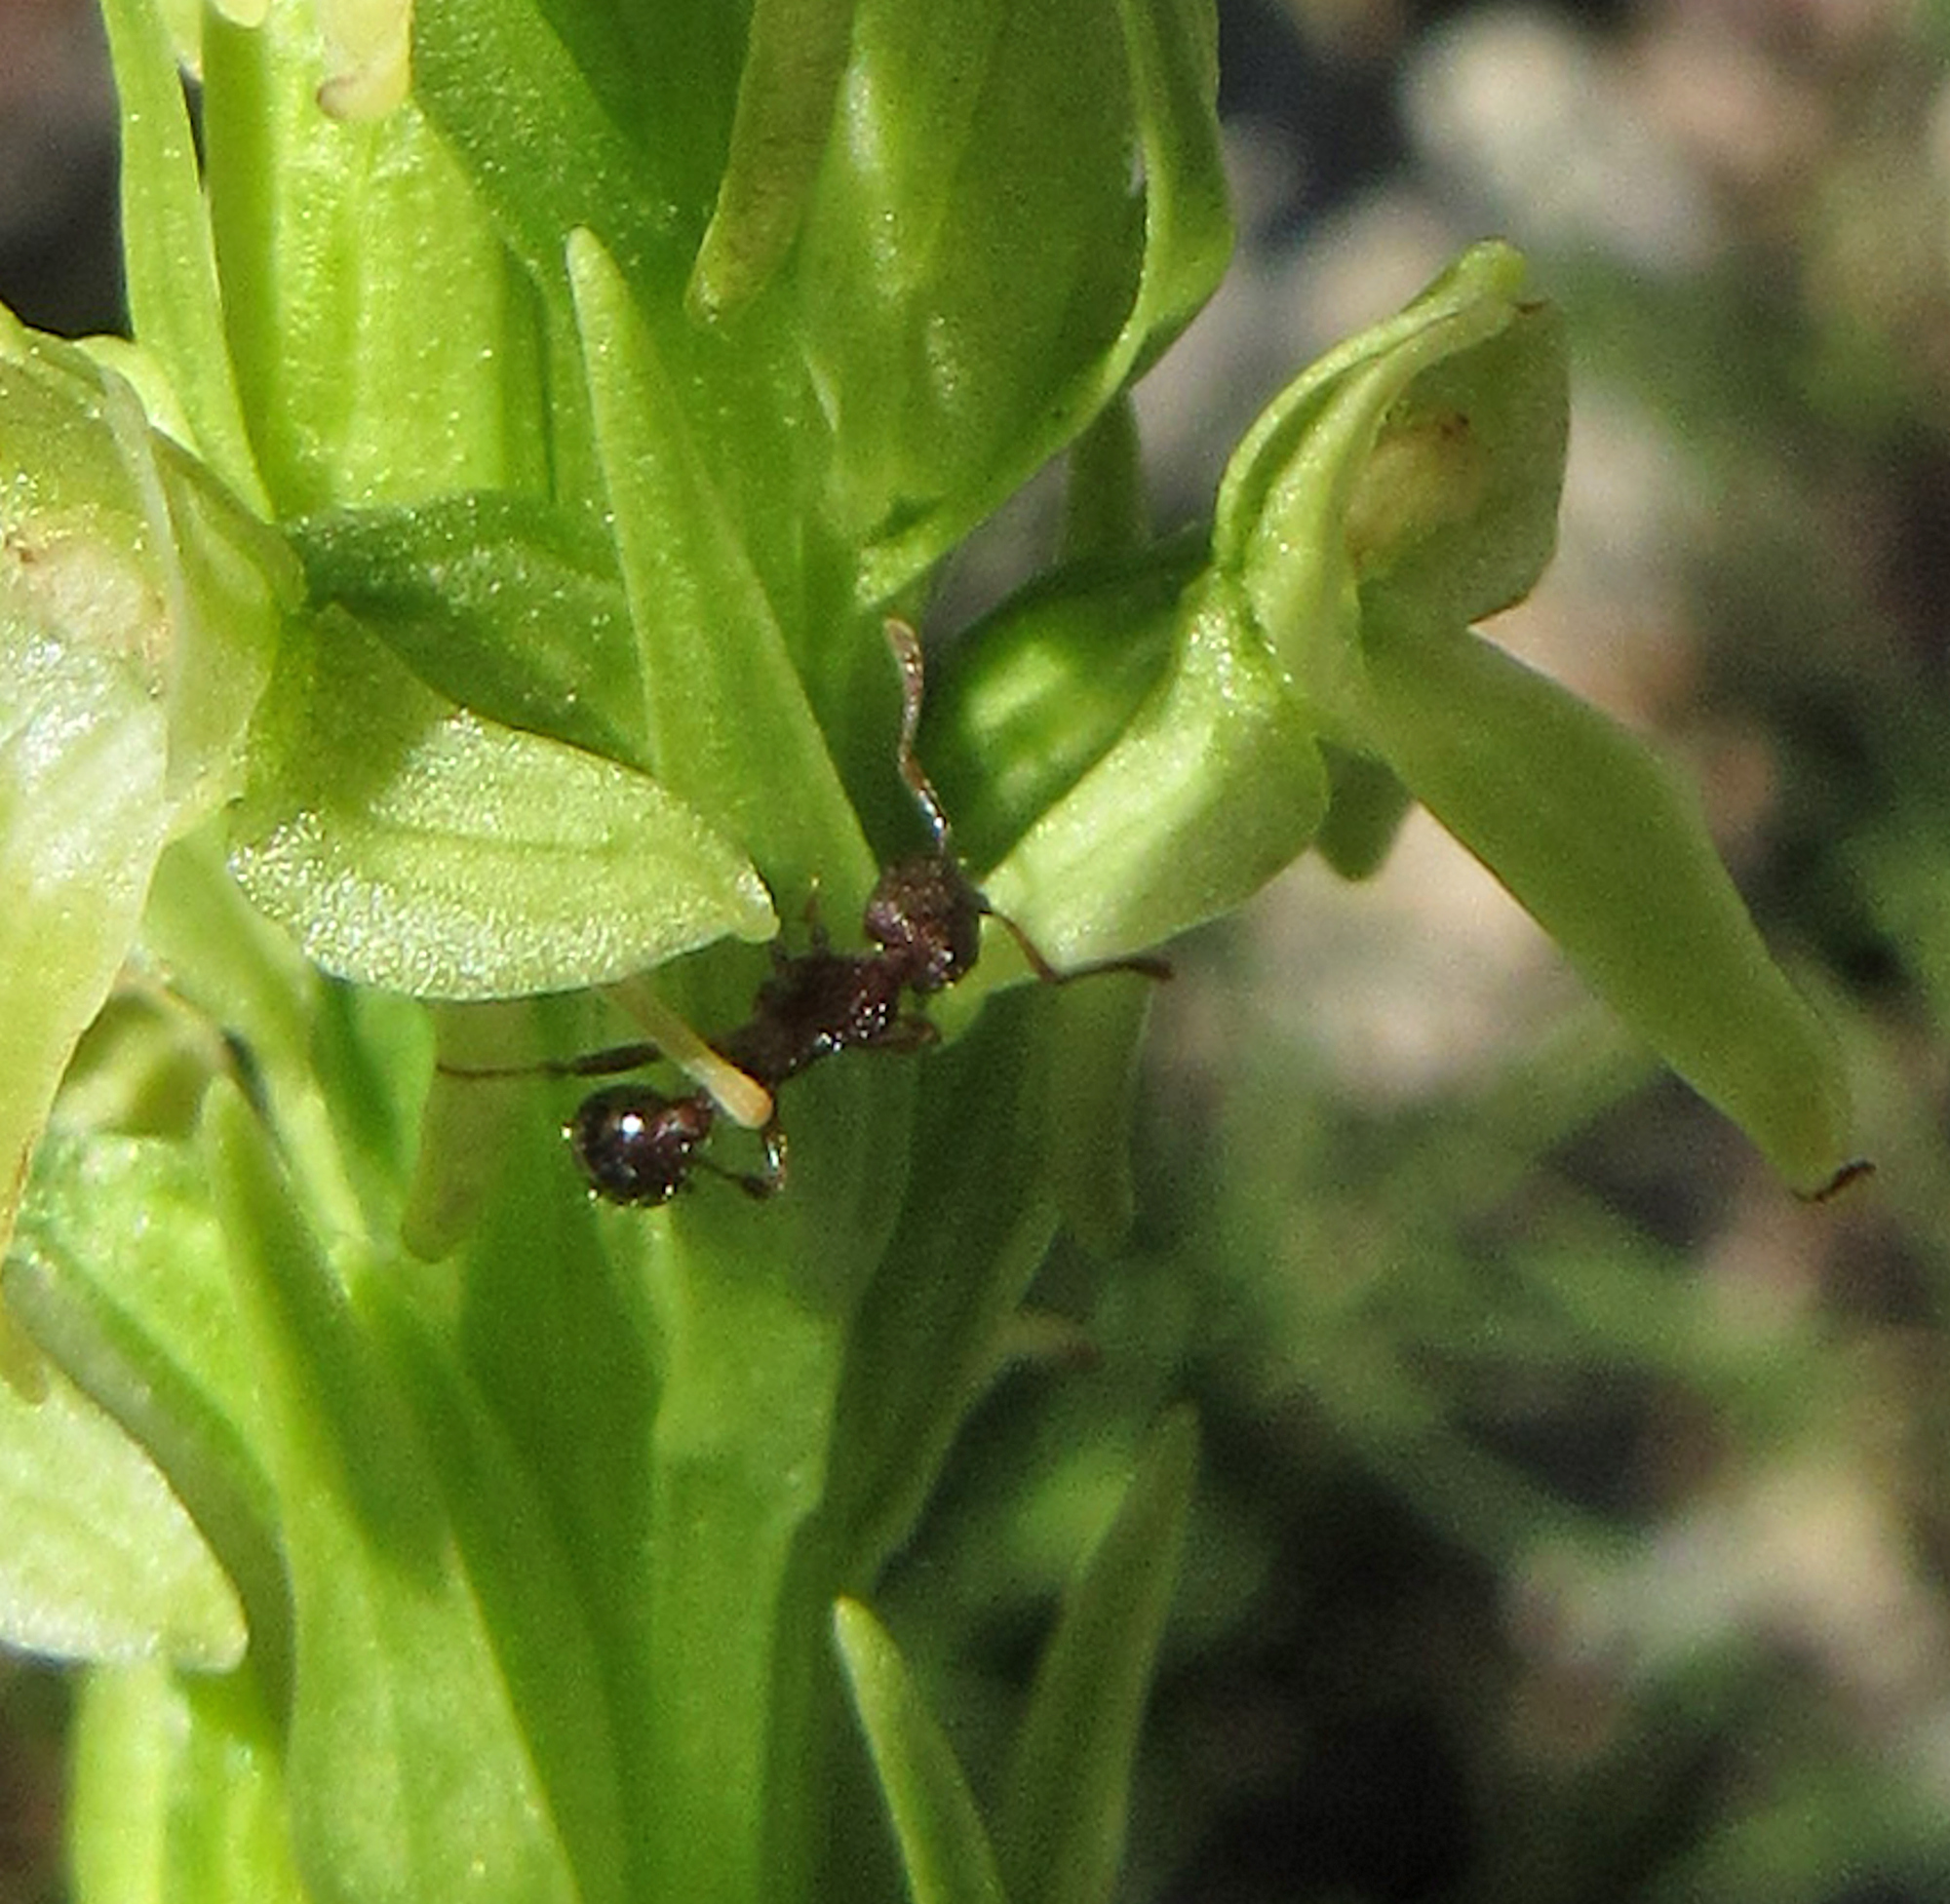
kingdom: Animalia
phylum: Arthropoda
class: Insecta
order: Hymenoptera
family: Formicidae
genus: Myrmica
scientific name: Myrmica
